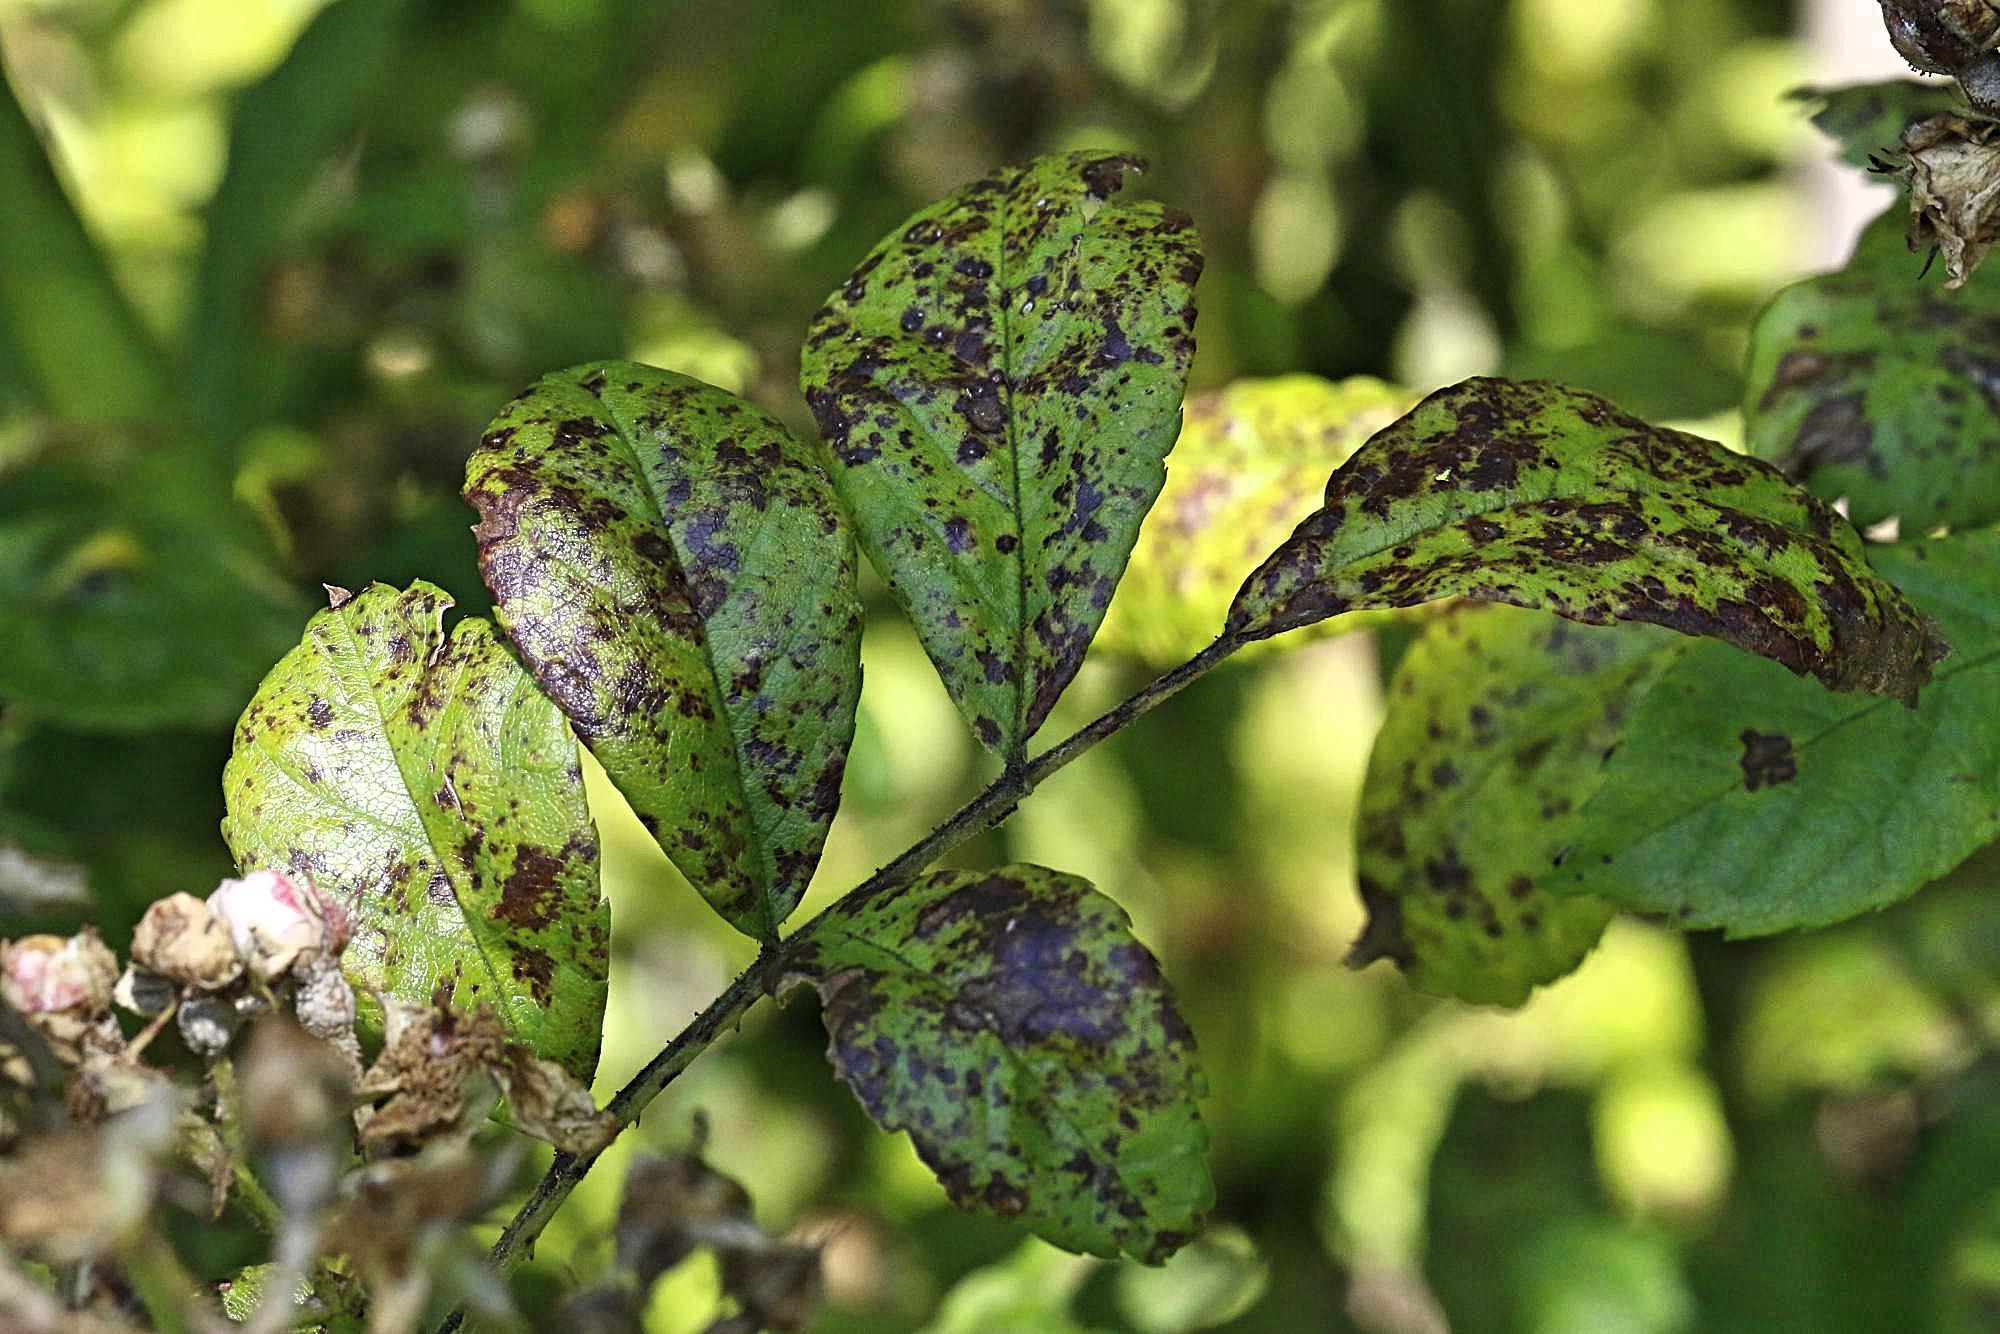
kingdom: Fungi
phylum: Ascomycota
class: Leotiomycetes
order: Helotiales
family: Drepanopezizaceae
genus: Diplocarpon
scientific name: Diplocarpon rosae
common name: Rose black-spot
